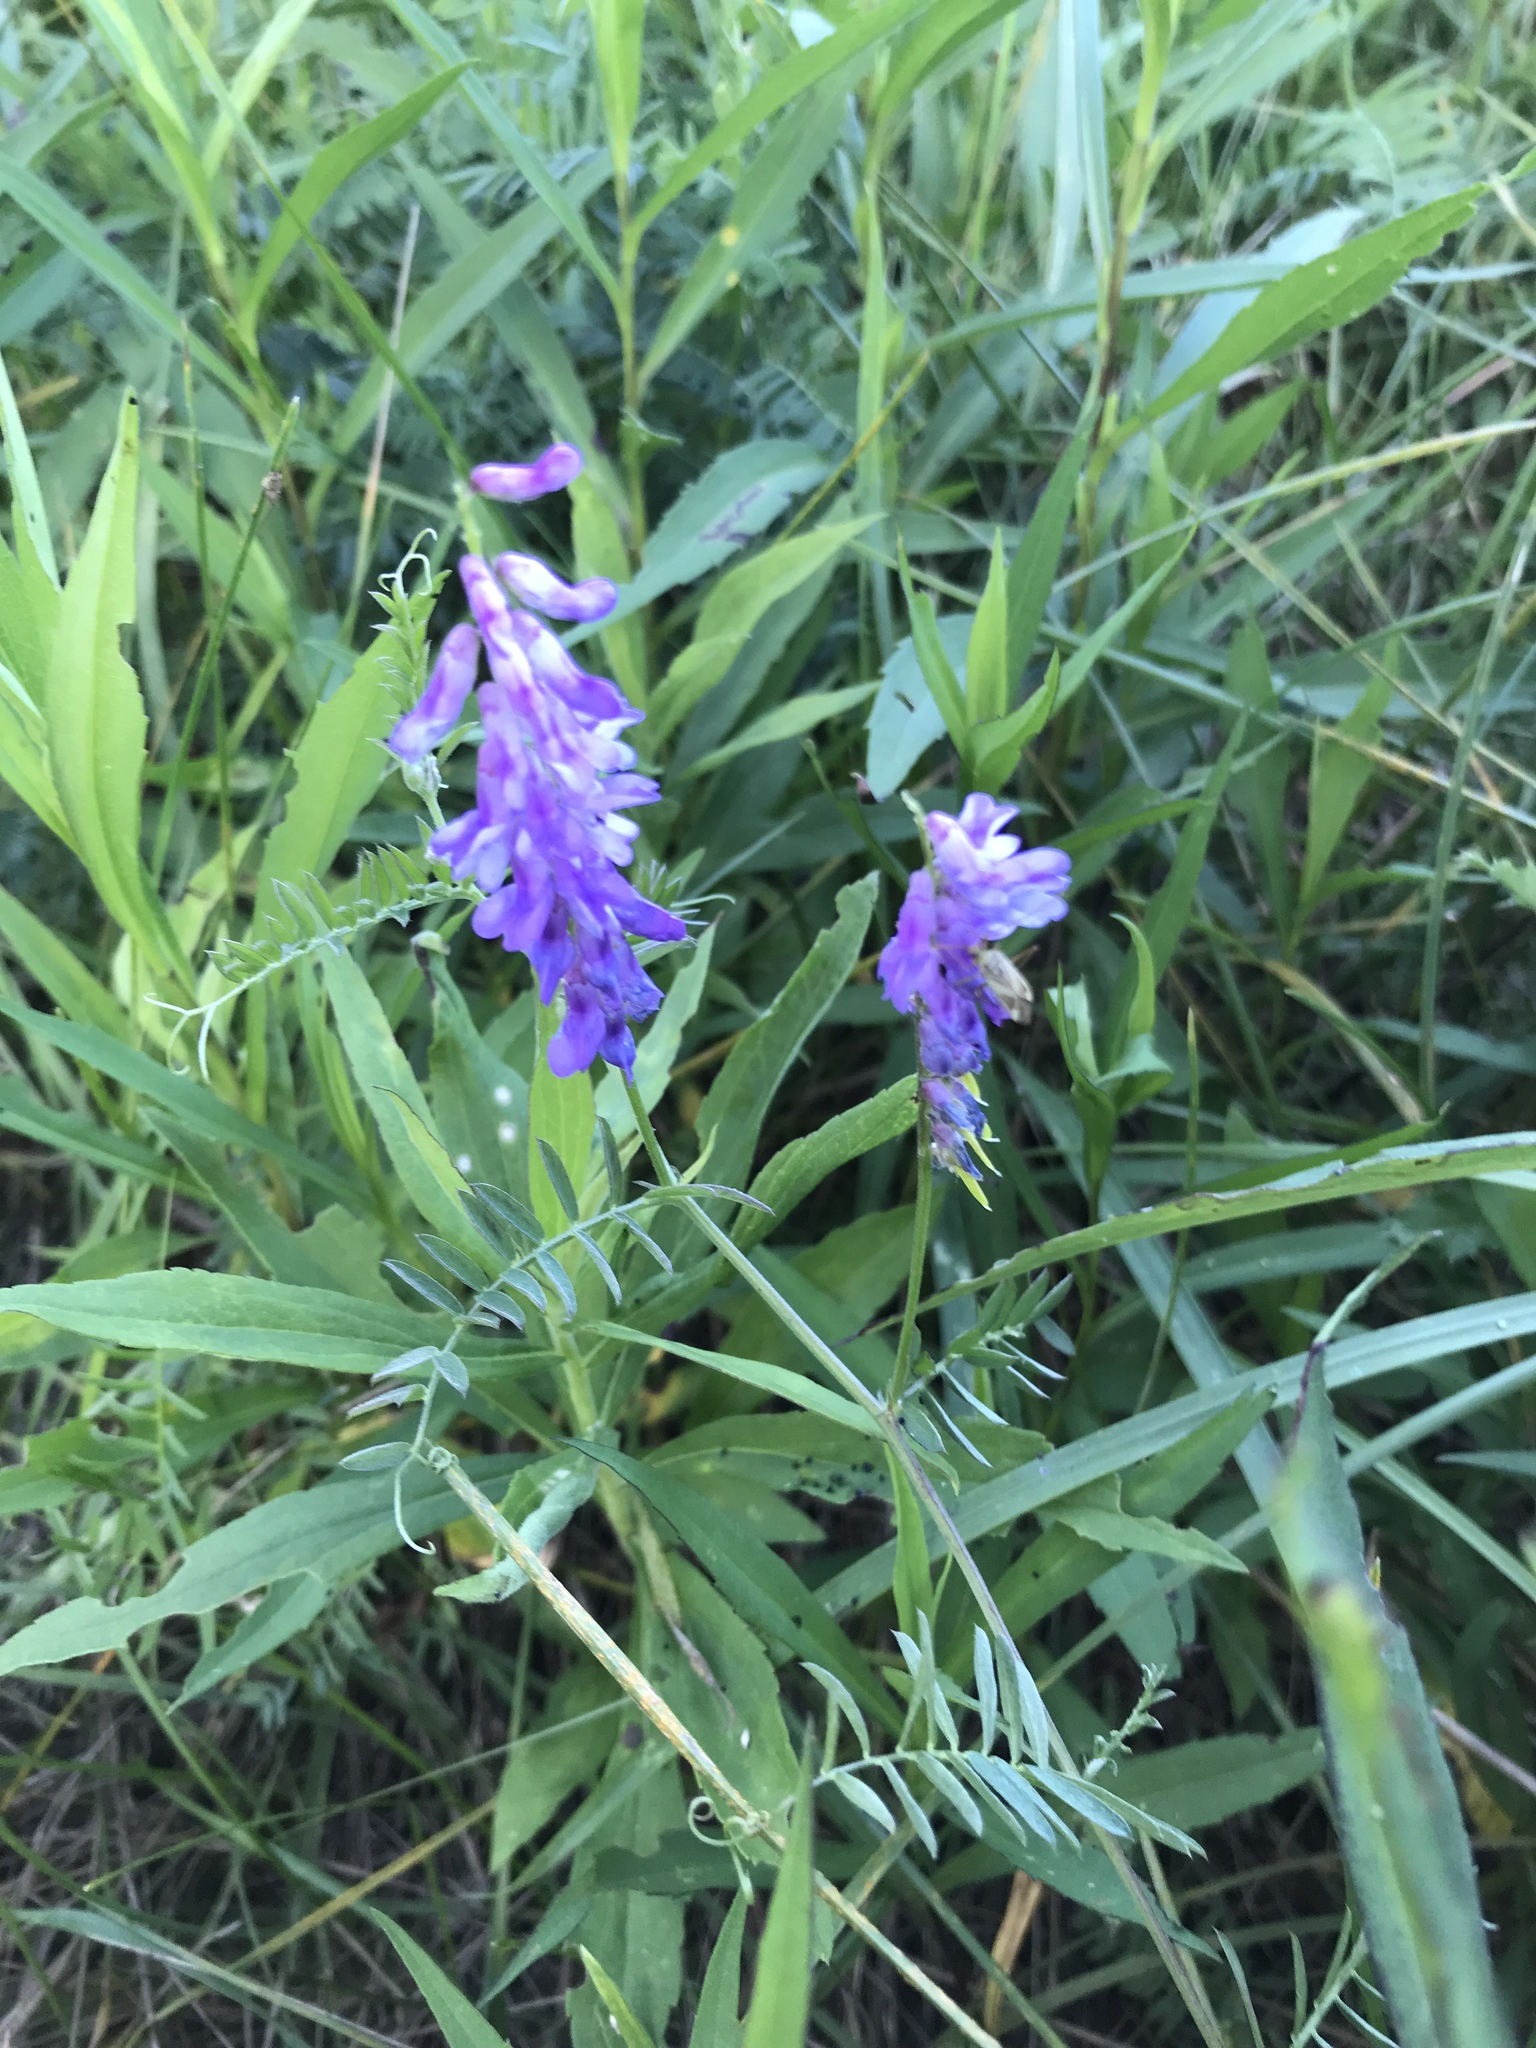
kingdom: Plantae
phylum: Tracheophyta
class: Magnoliopsida
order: Fabales
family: Fabaceae
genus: Vicia
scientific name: Vicia cracca
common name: Bird vetch
